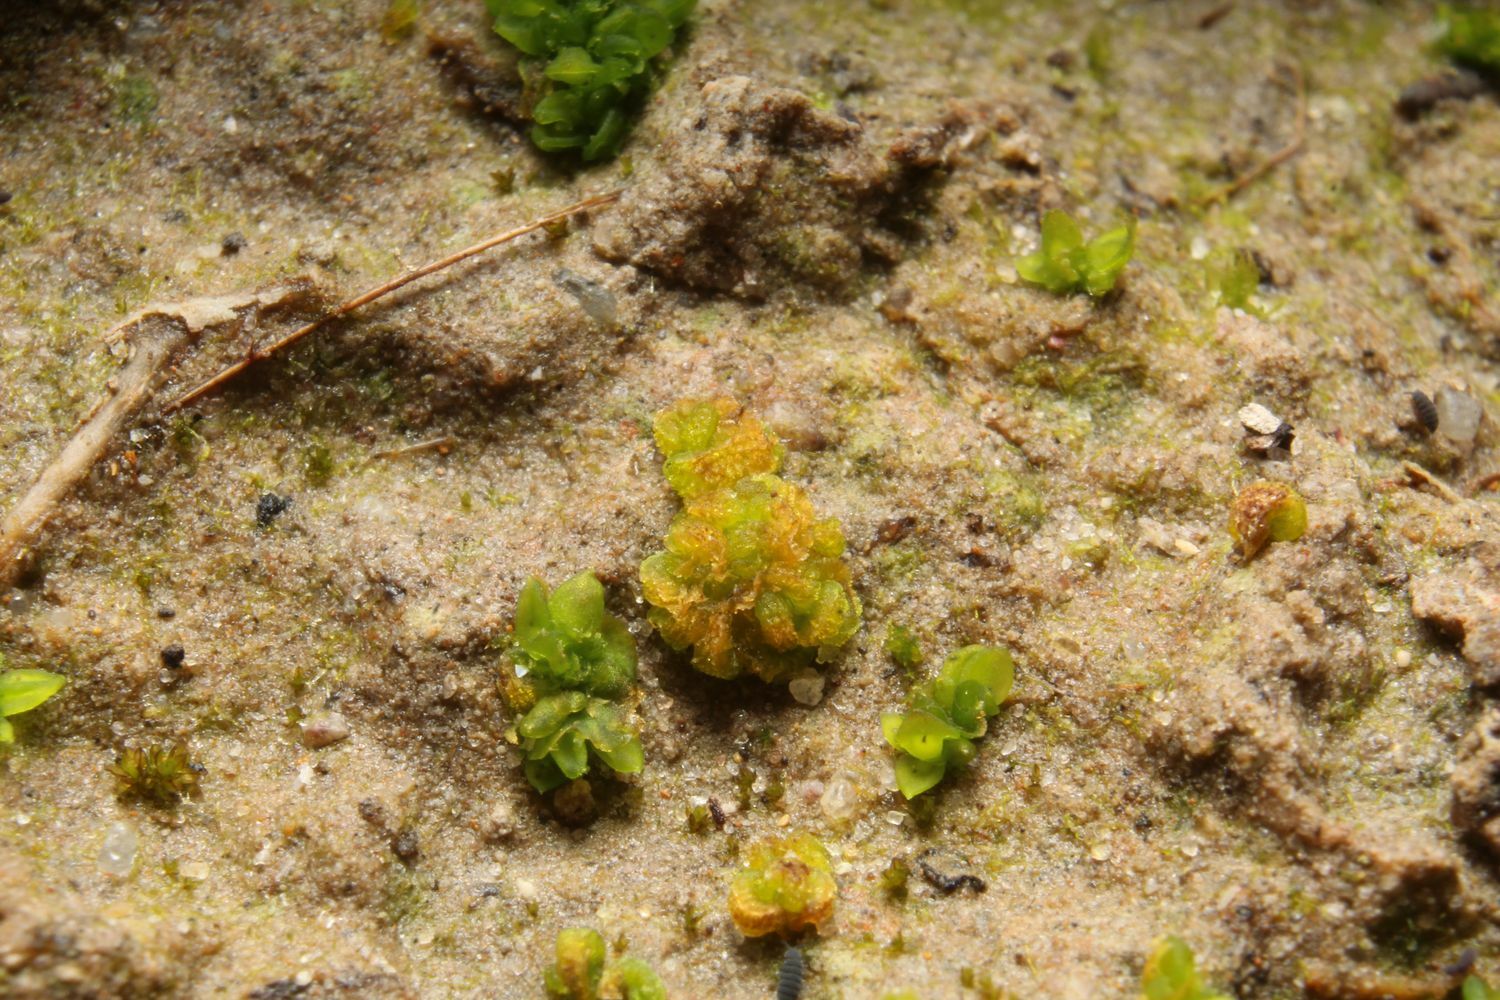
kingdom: Plantae
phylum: Marchantiophyta
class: Marchantiopsida
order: Sphaerocarpales
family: Riellaceae
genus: Austroriella
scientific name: Austroriella salta
